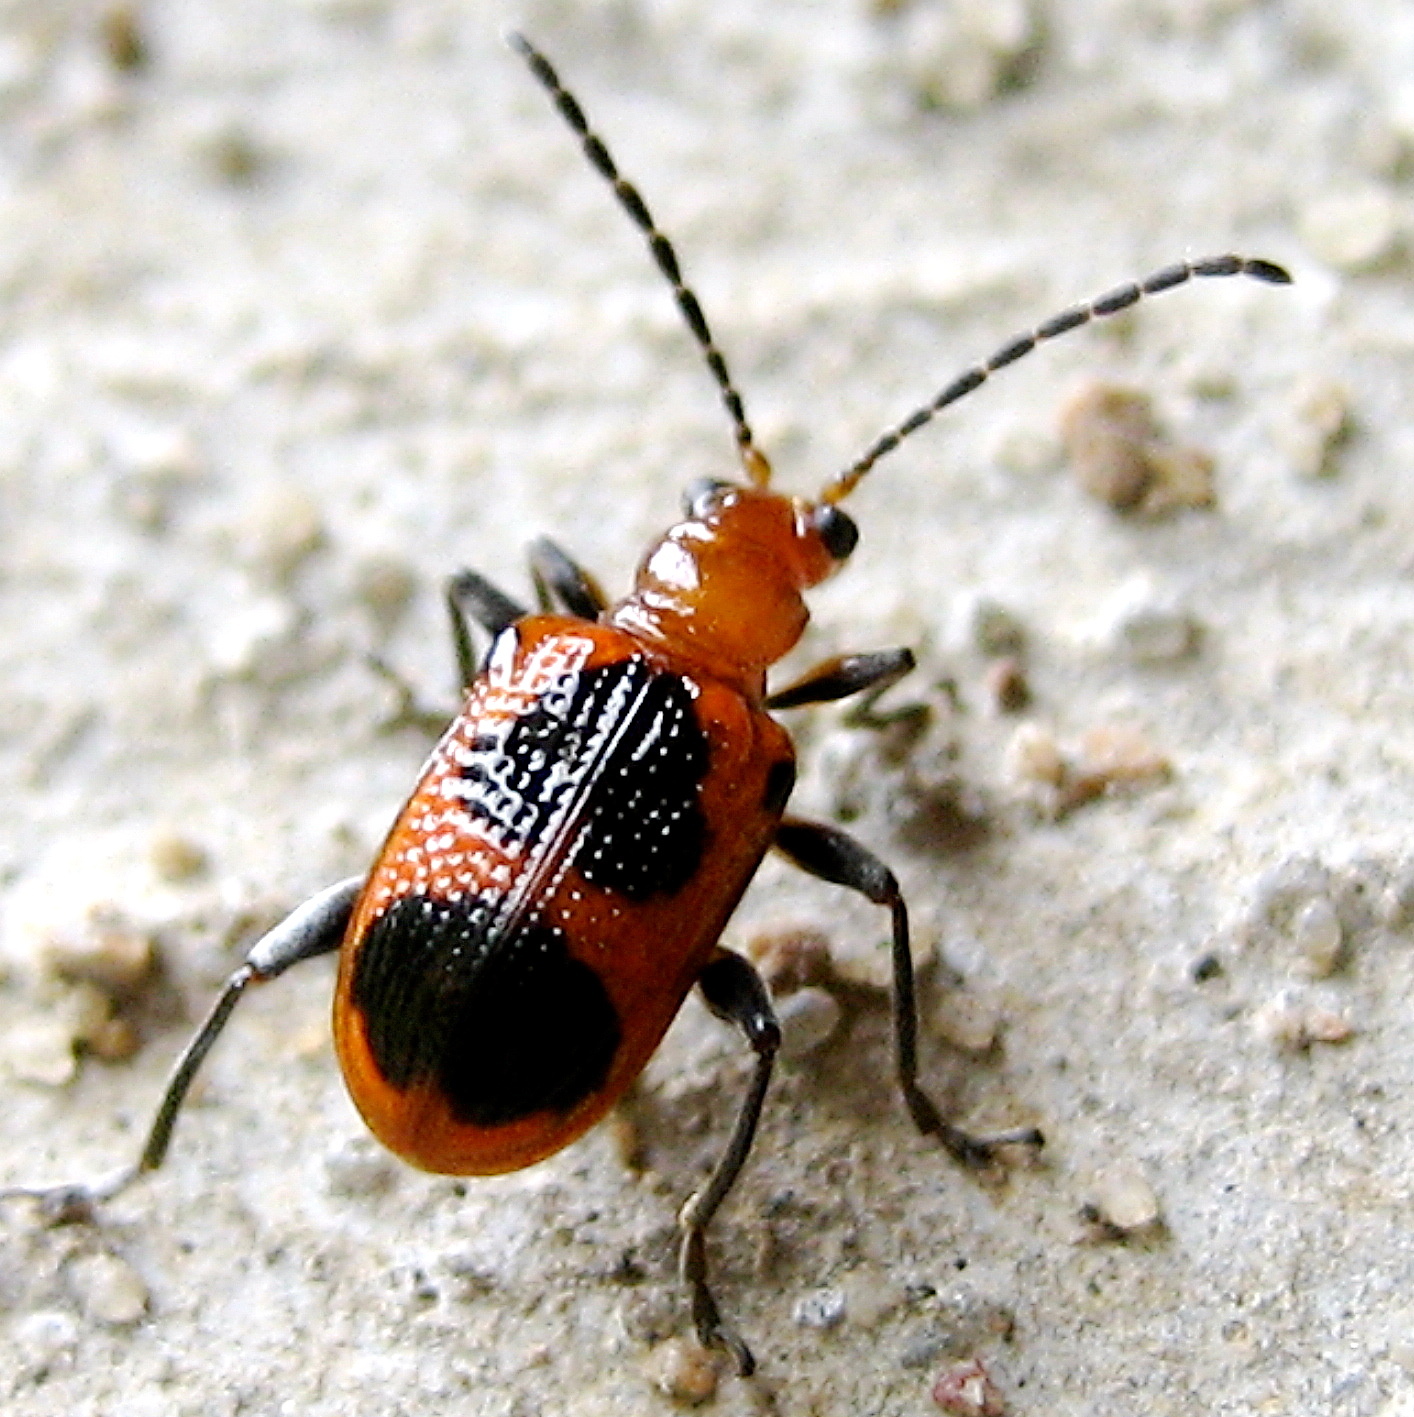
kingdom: Animalia
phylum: Arthropoda
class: Insecta
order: Coleoptera
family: Chrysomelidae
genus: Neolema
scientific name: Neolema cordata
